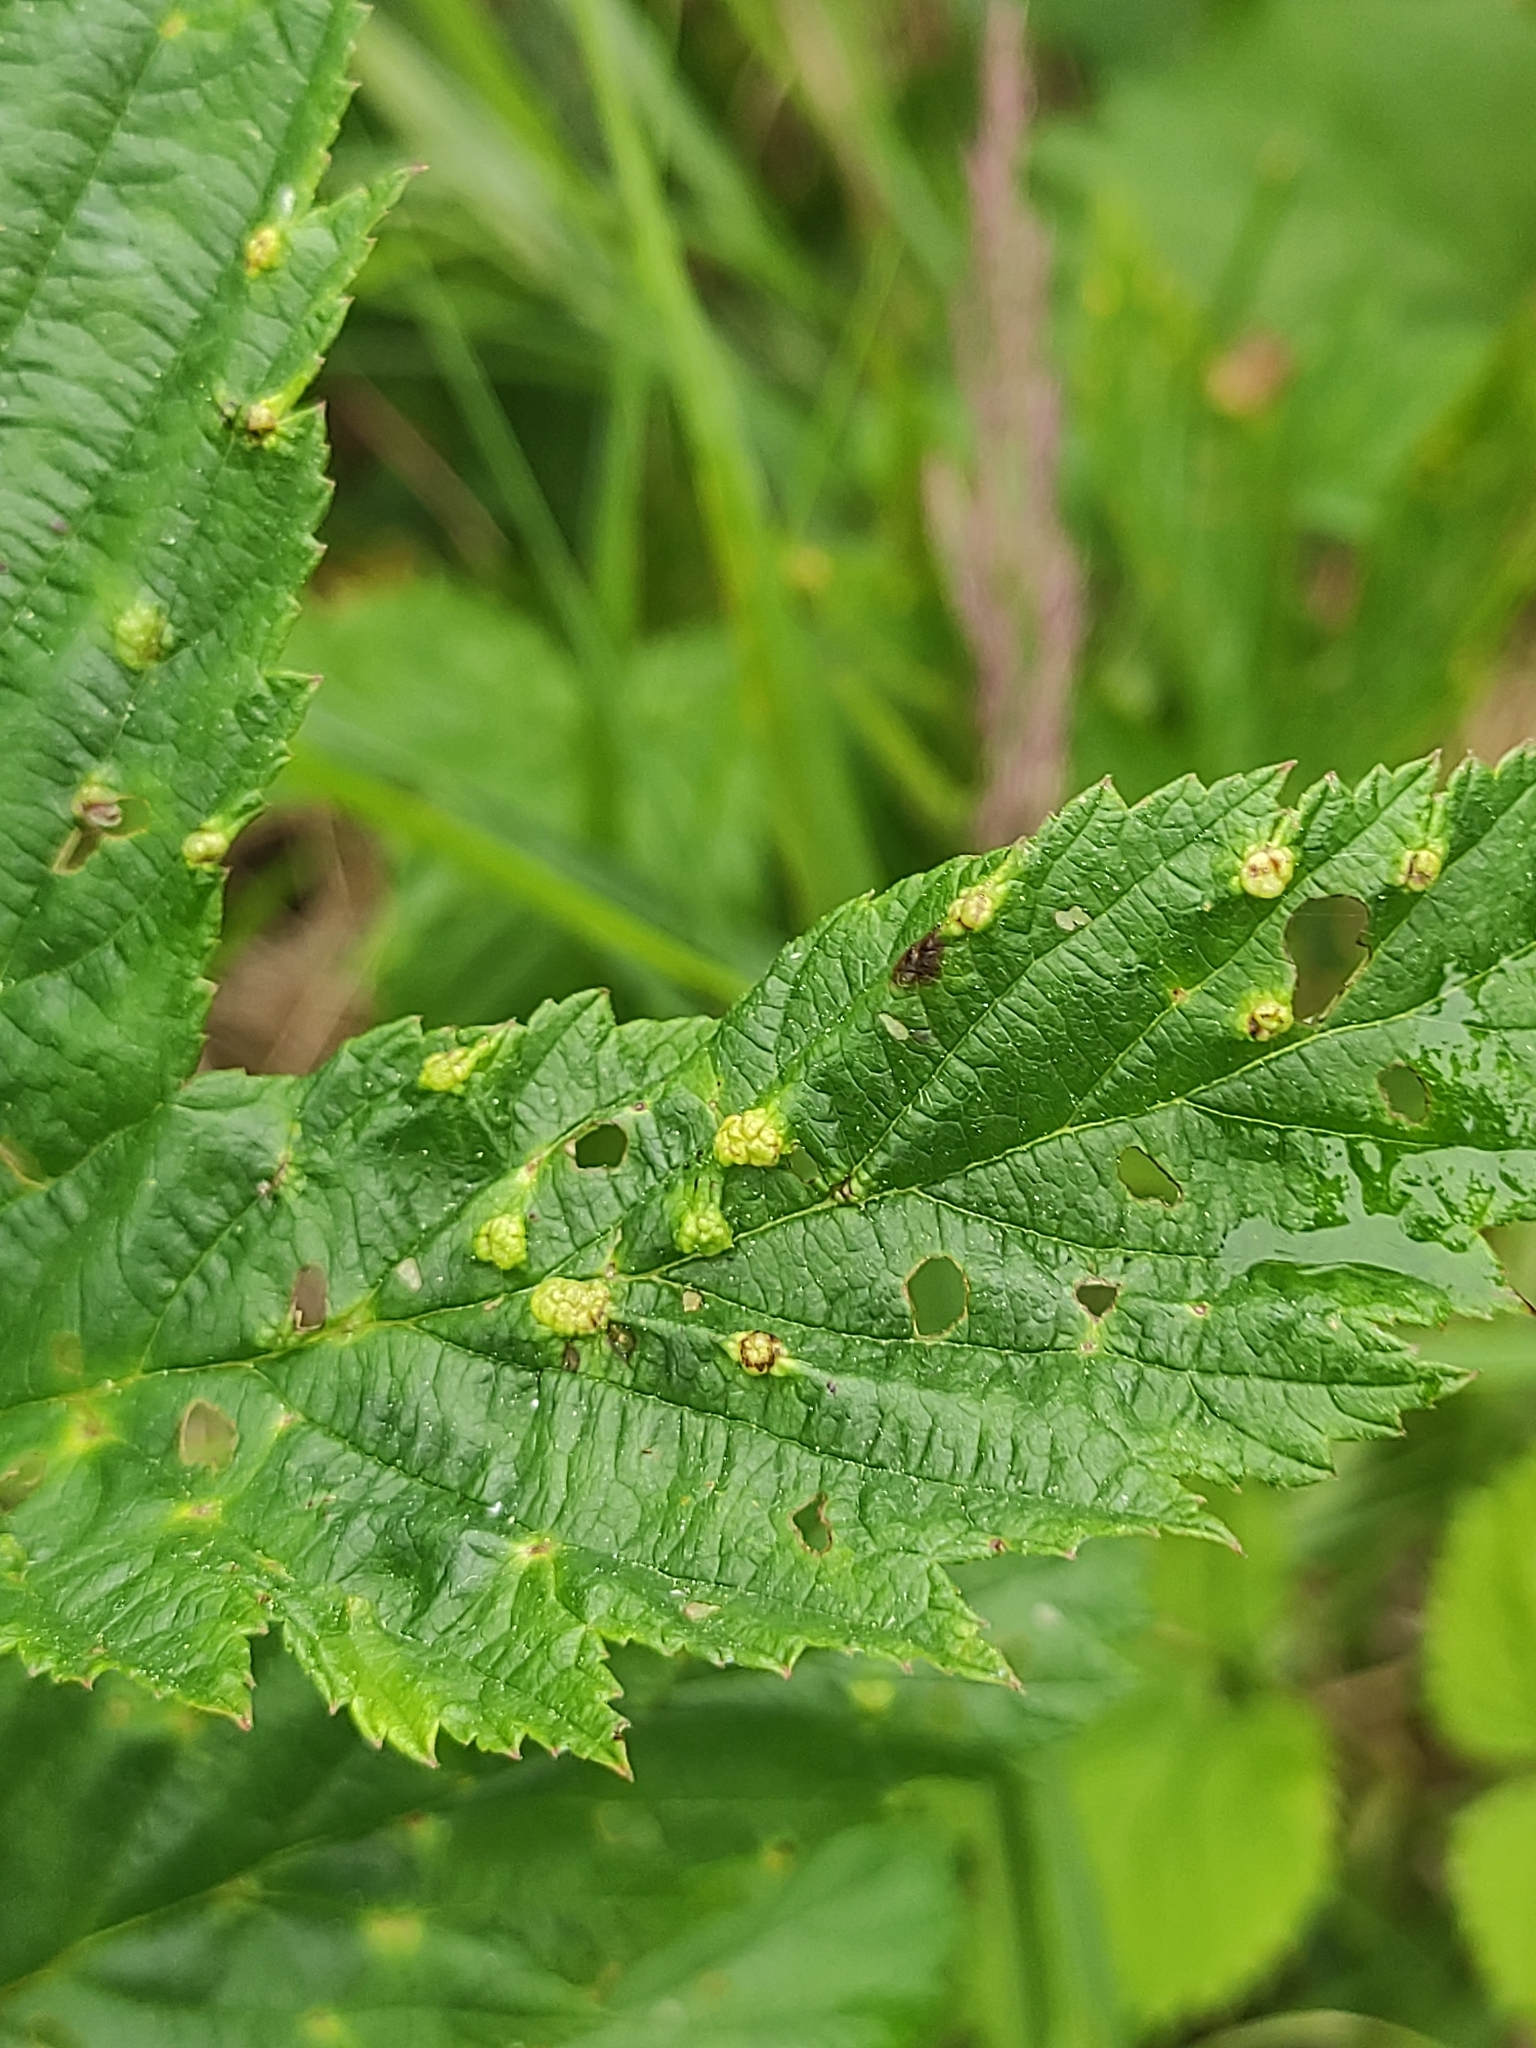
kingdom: Animalia
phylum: Arthropoda
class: Insecta
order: Diptera
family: Cecidomyiidae
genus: Dasineura
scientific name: Dasineura ulmaria
